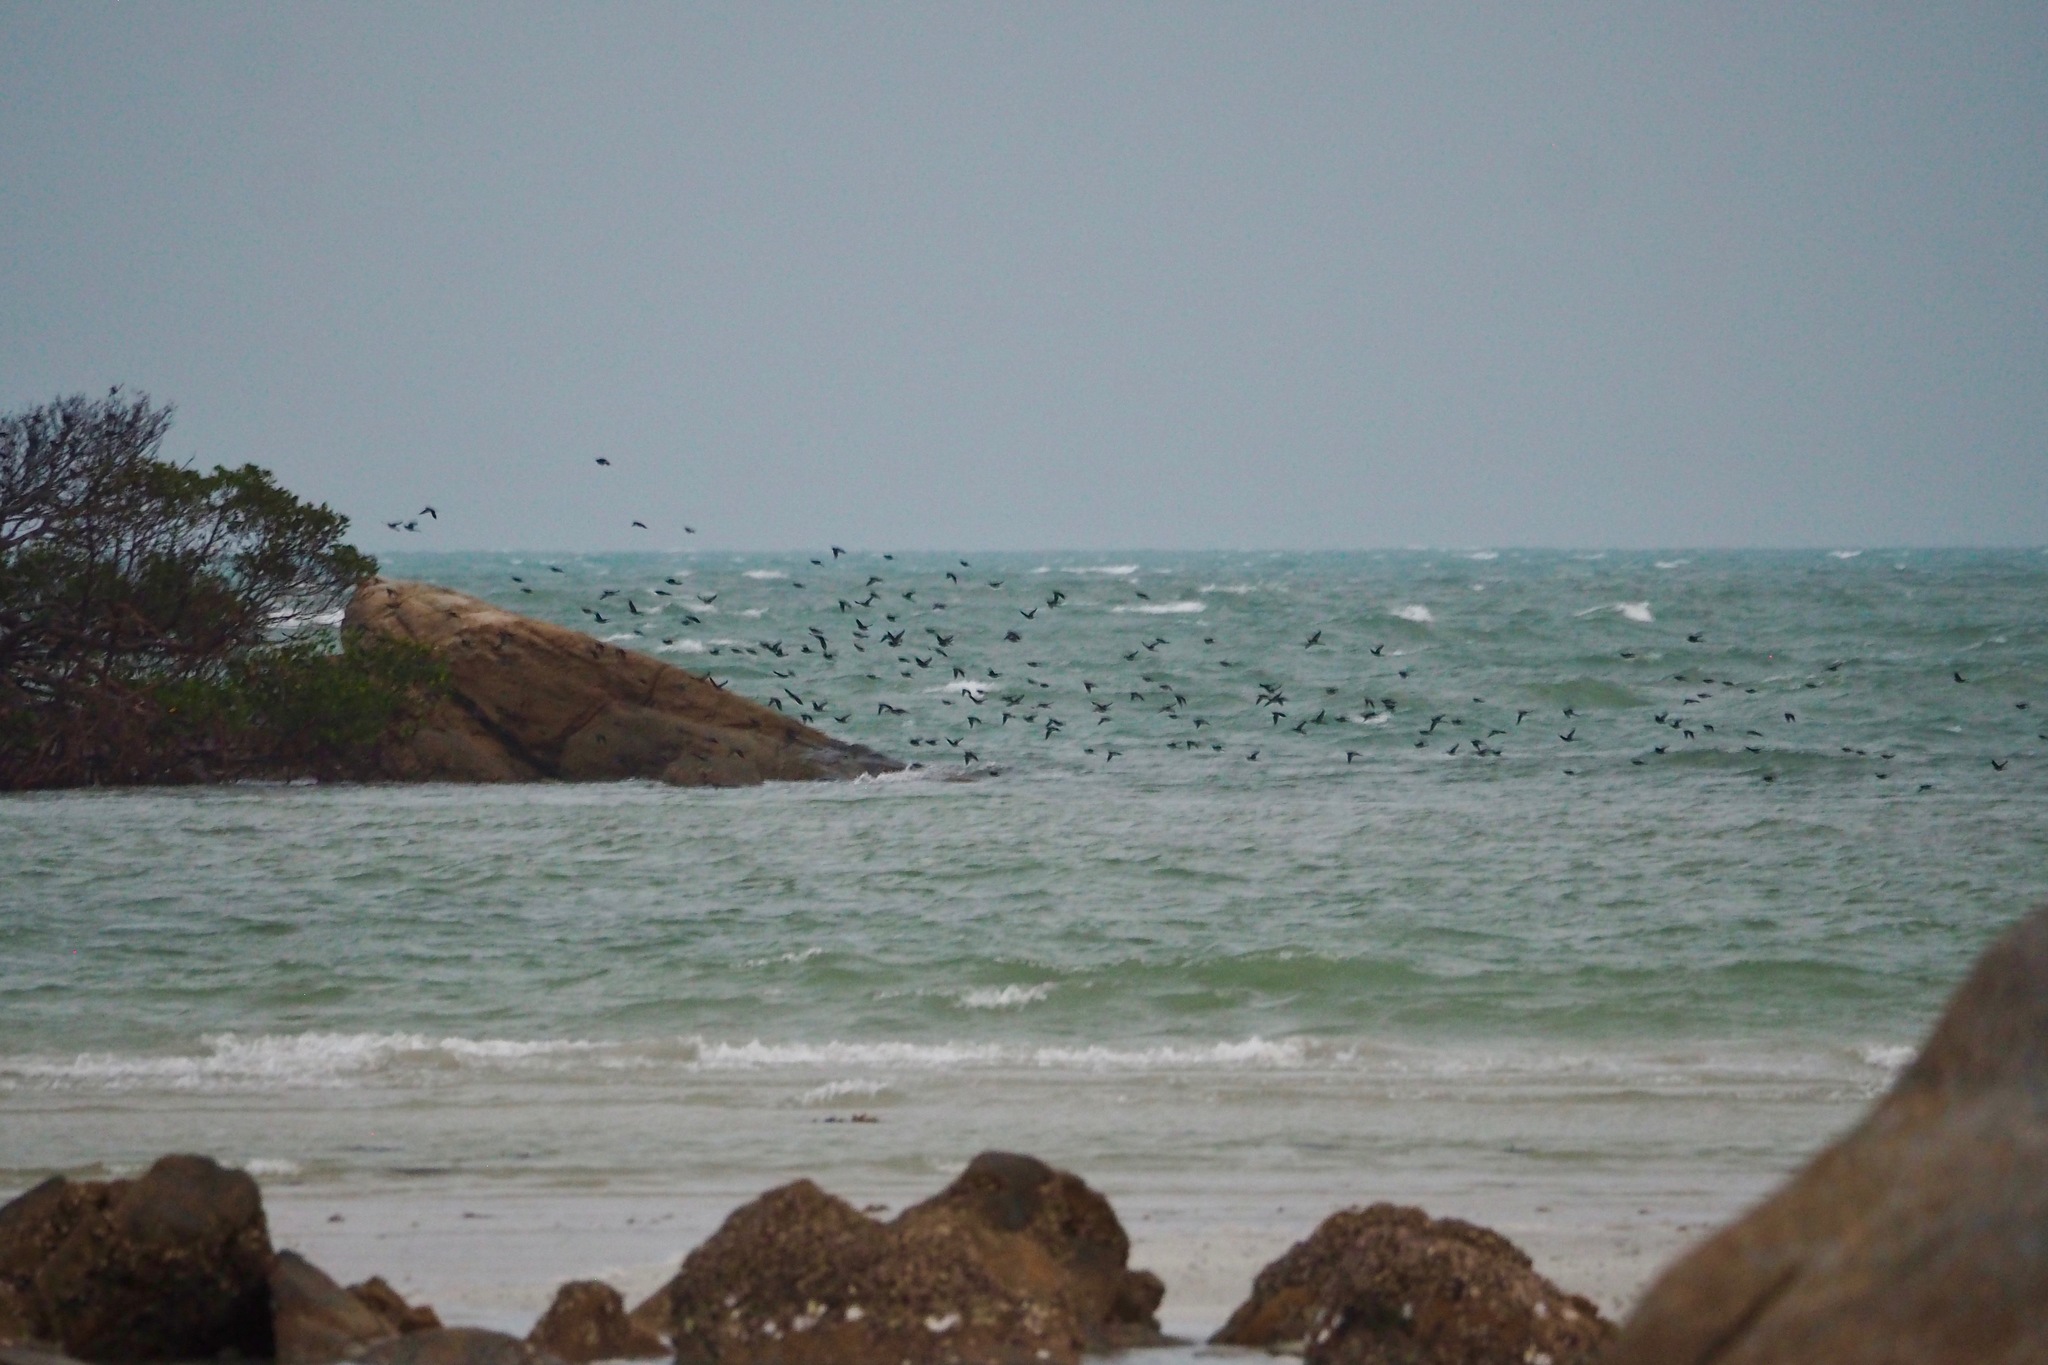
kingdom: Animalia
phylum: Chordata
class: Aves
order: Passeriformes
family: Sturnidae
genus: Aplonis
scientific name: Aplonis metallica
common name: Metallic starling
